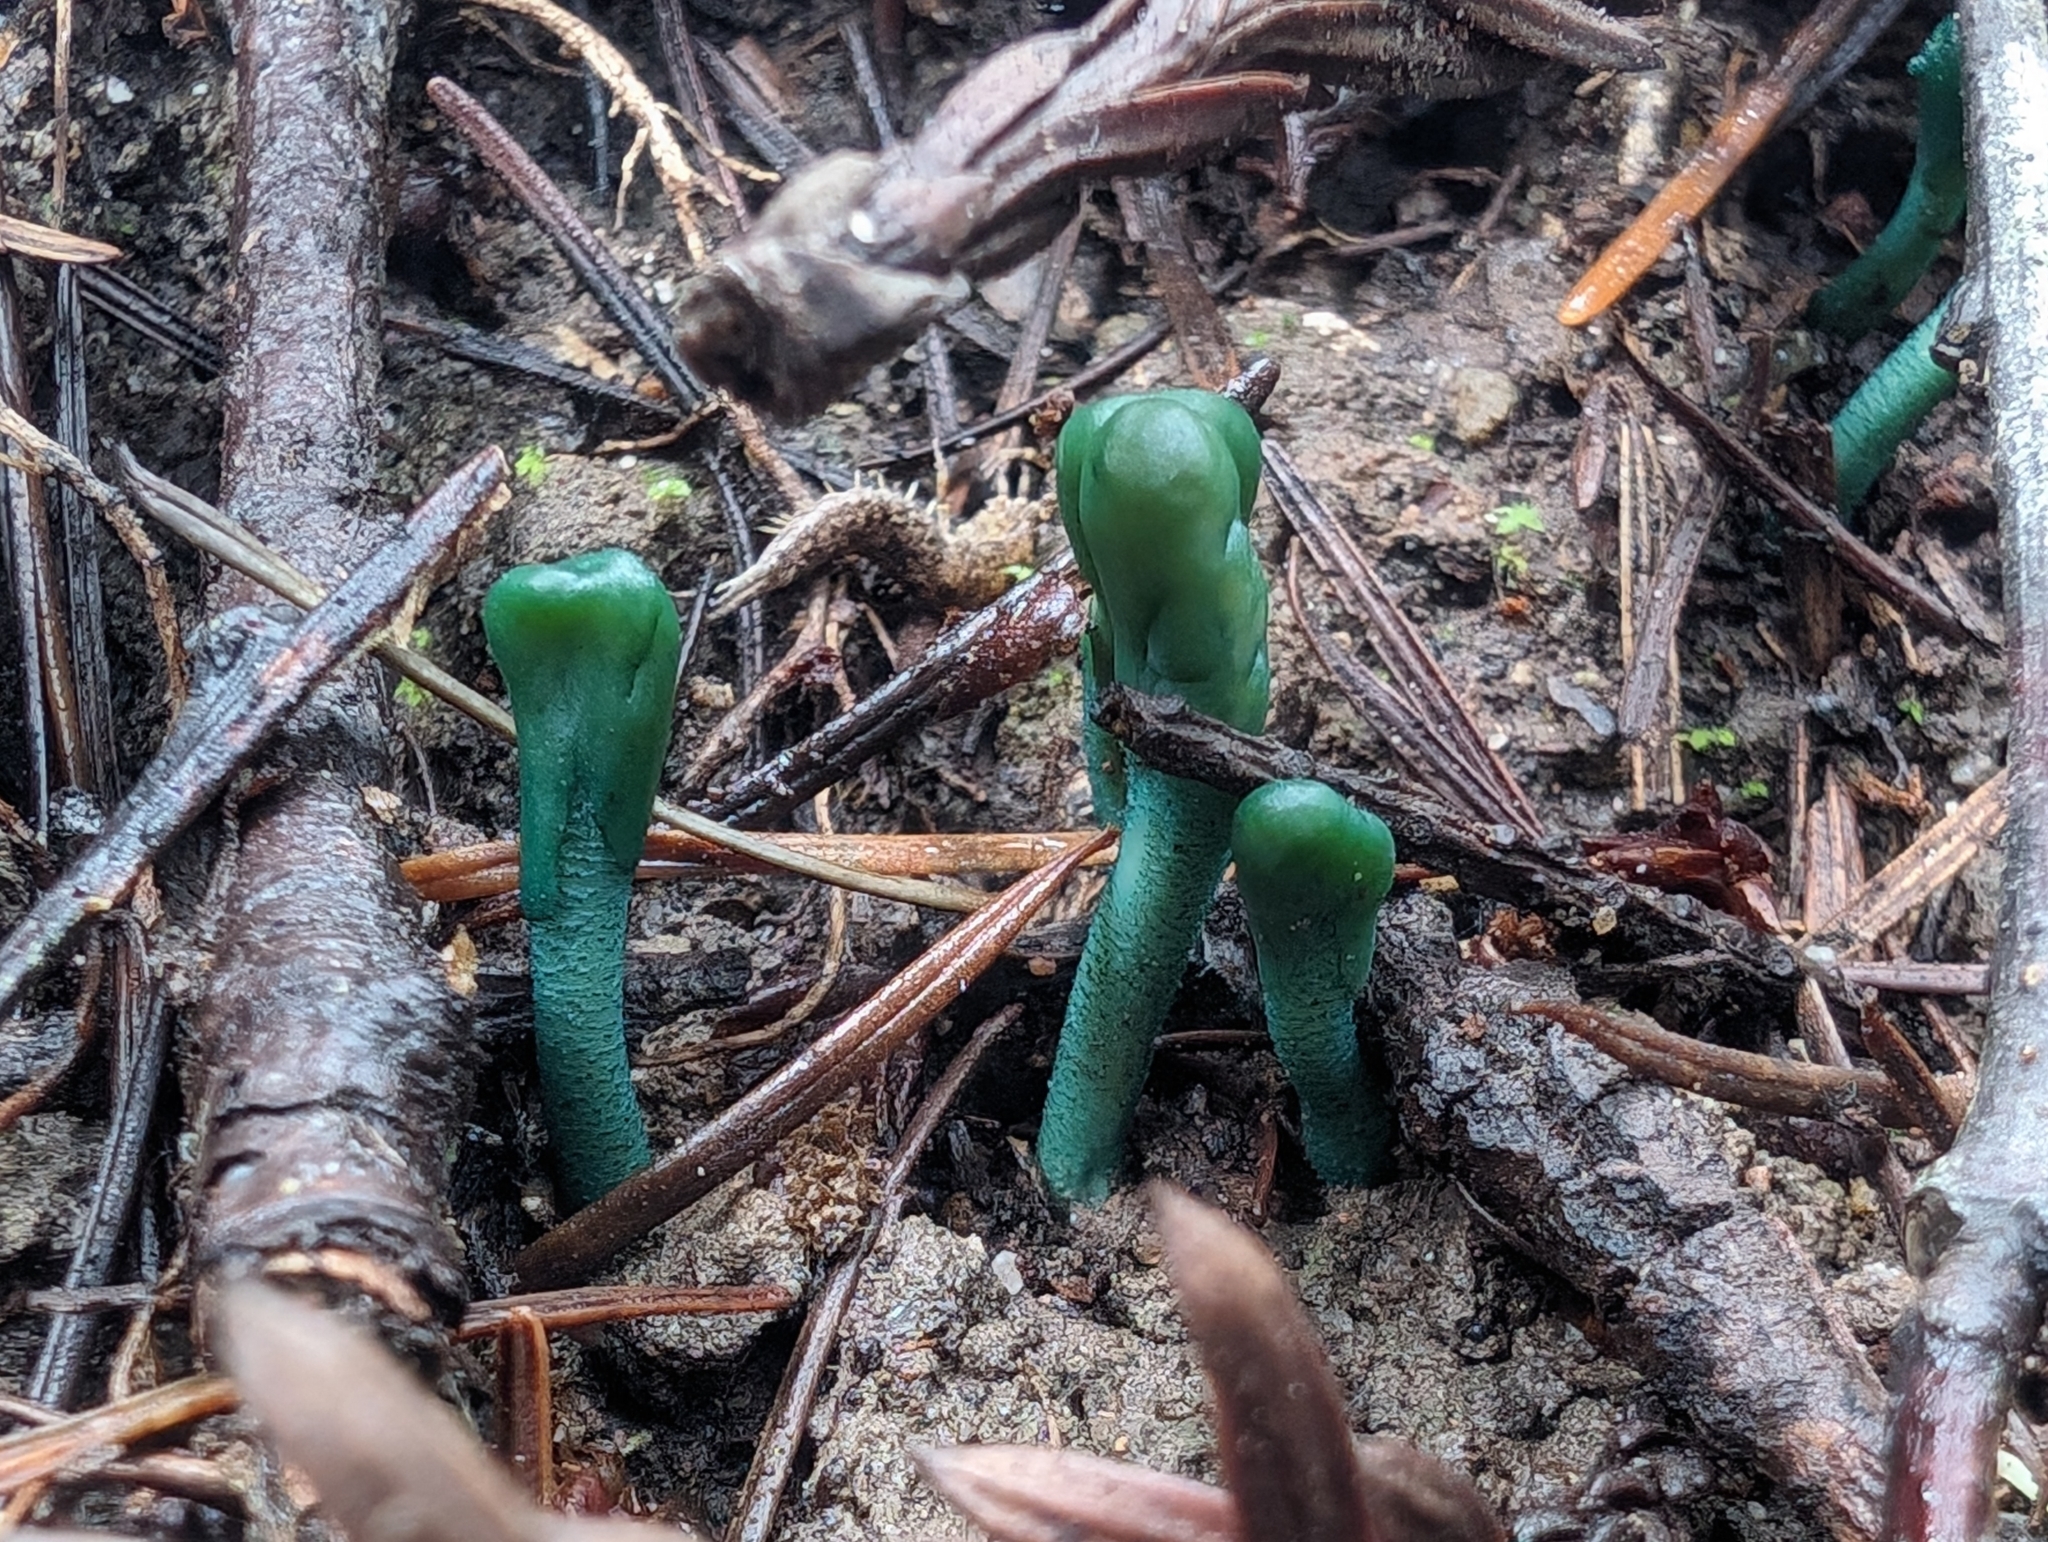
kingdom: Fungi
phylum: Ascomycota
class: Leotiomycetes
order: Leotiales
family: Leotiaceae
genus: Microglossum
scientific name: Microglossum viride
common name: Green earthtongue
